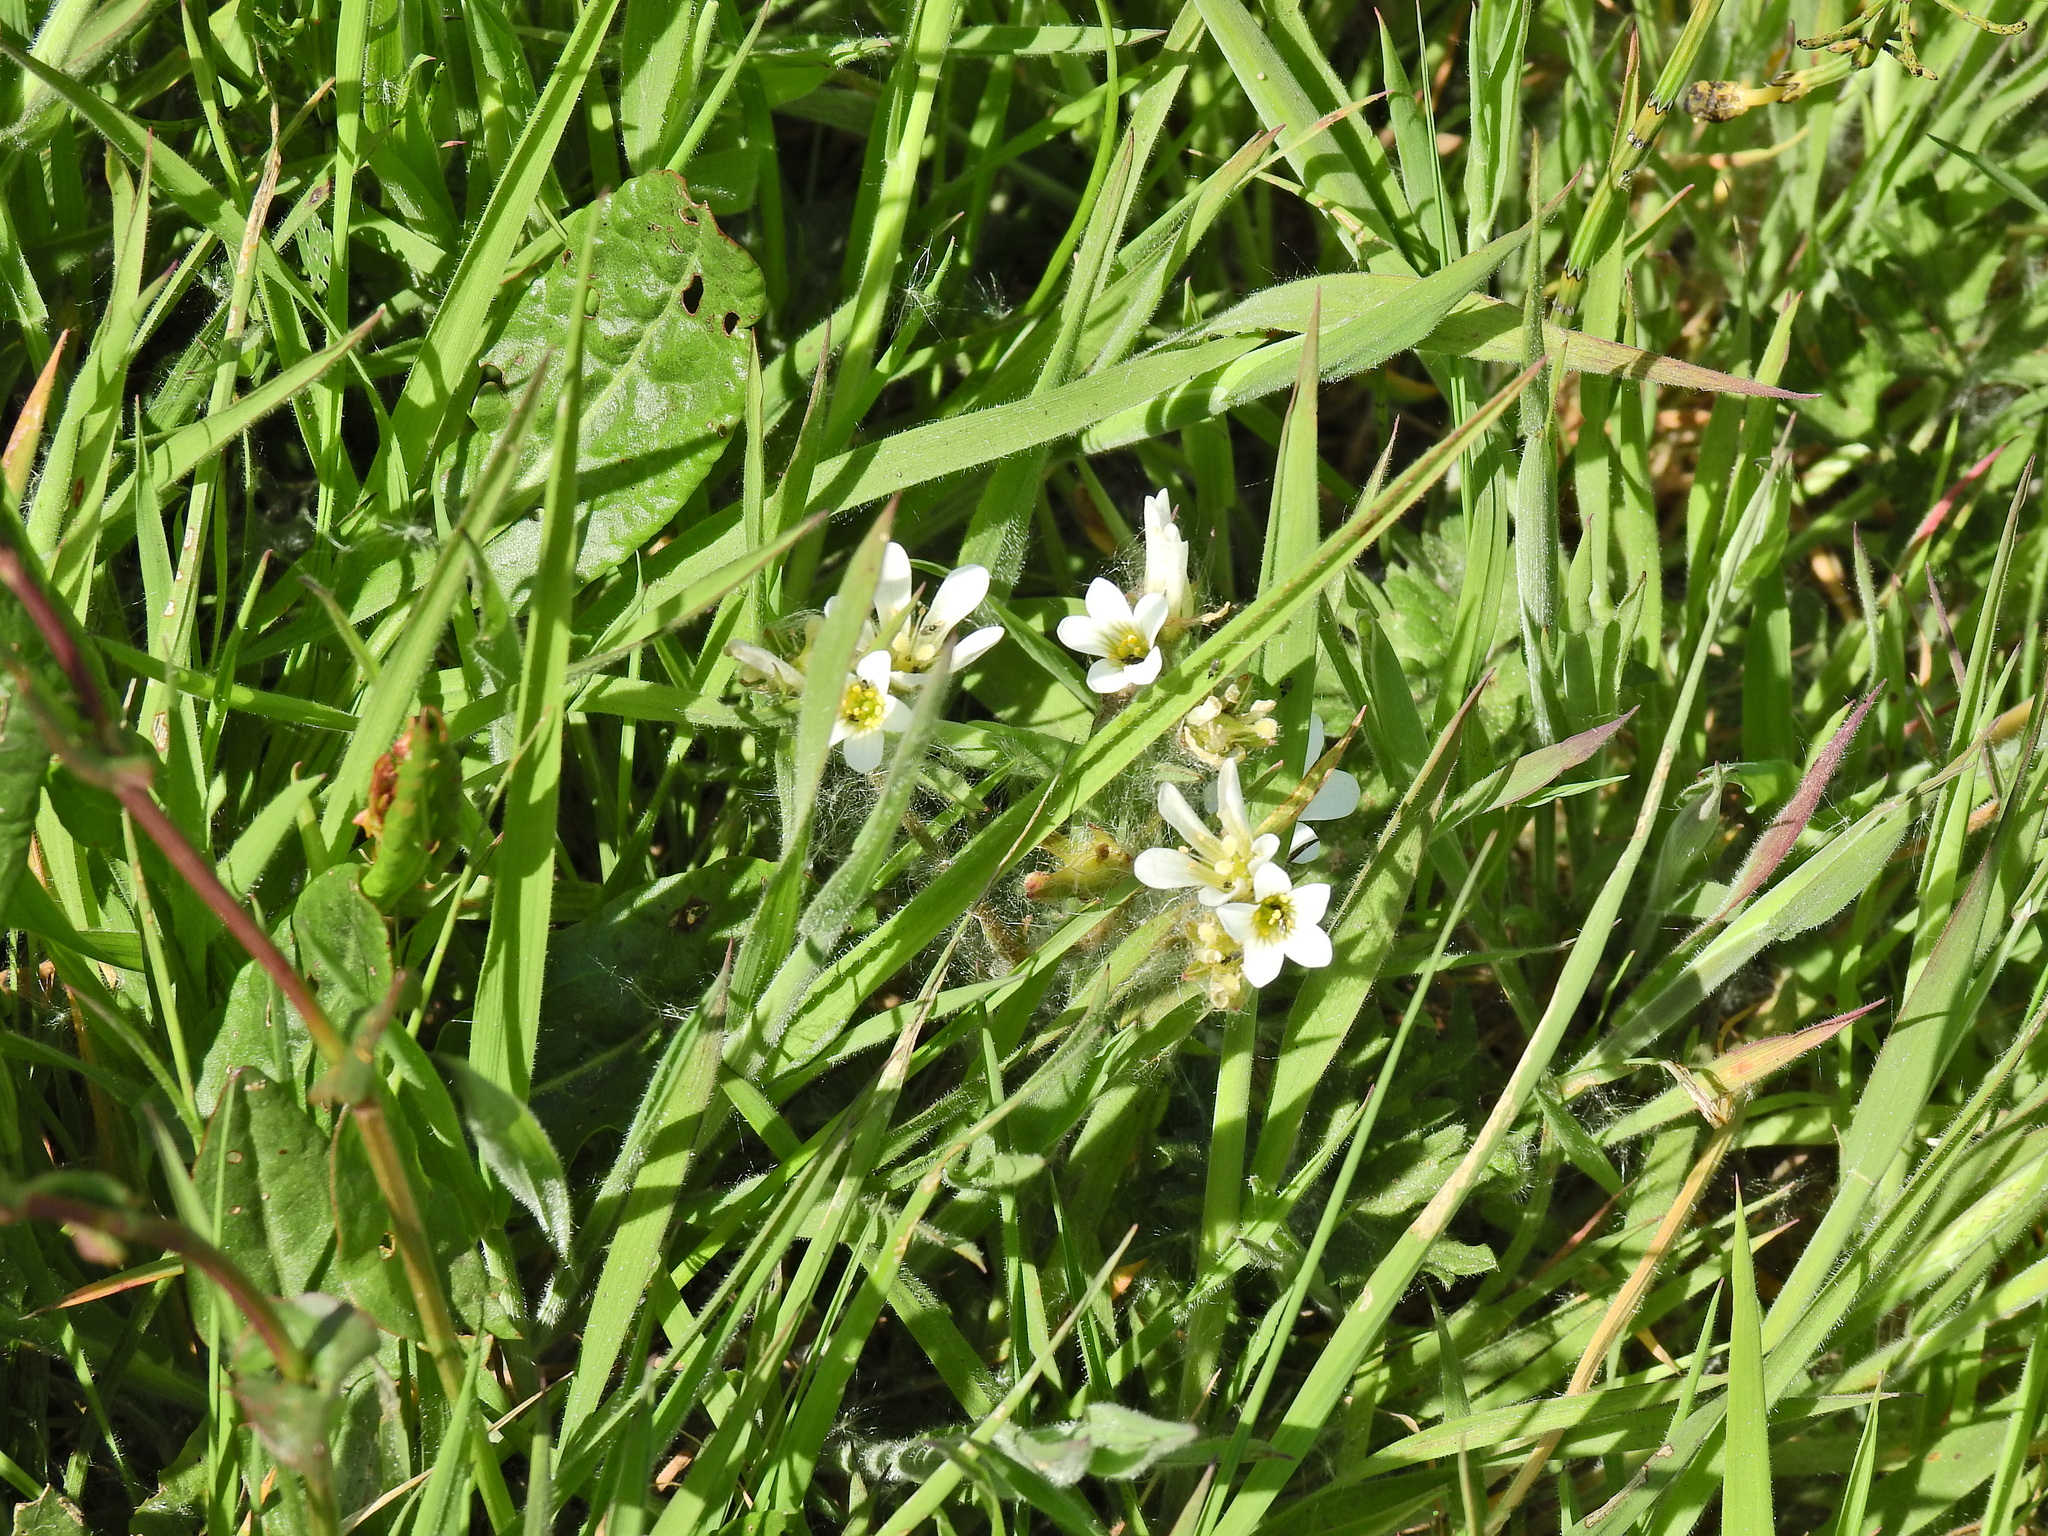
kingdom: Plantae
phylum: Tracheophyta
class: Magnoliopsida
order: Saxifragales
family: Saxifragaceae
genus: Saxifraga
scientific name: Saxifraga granulata
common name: Meadow saxifrage
